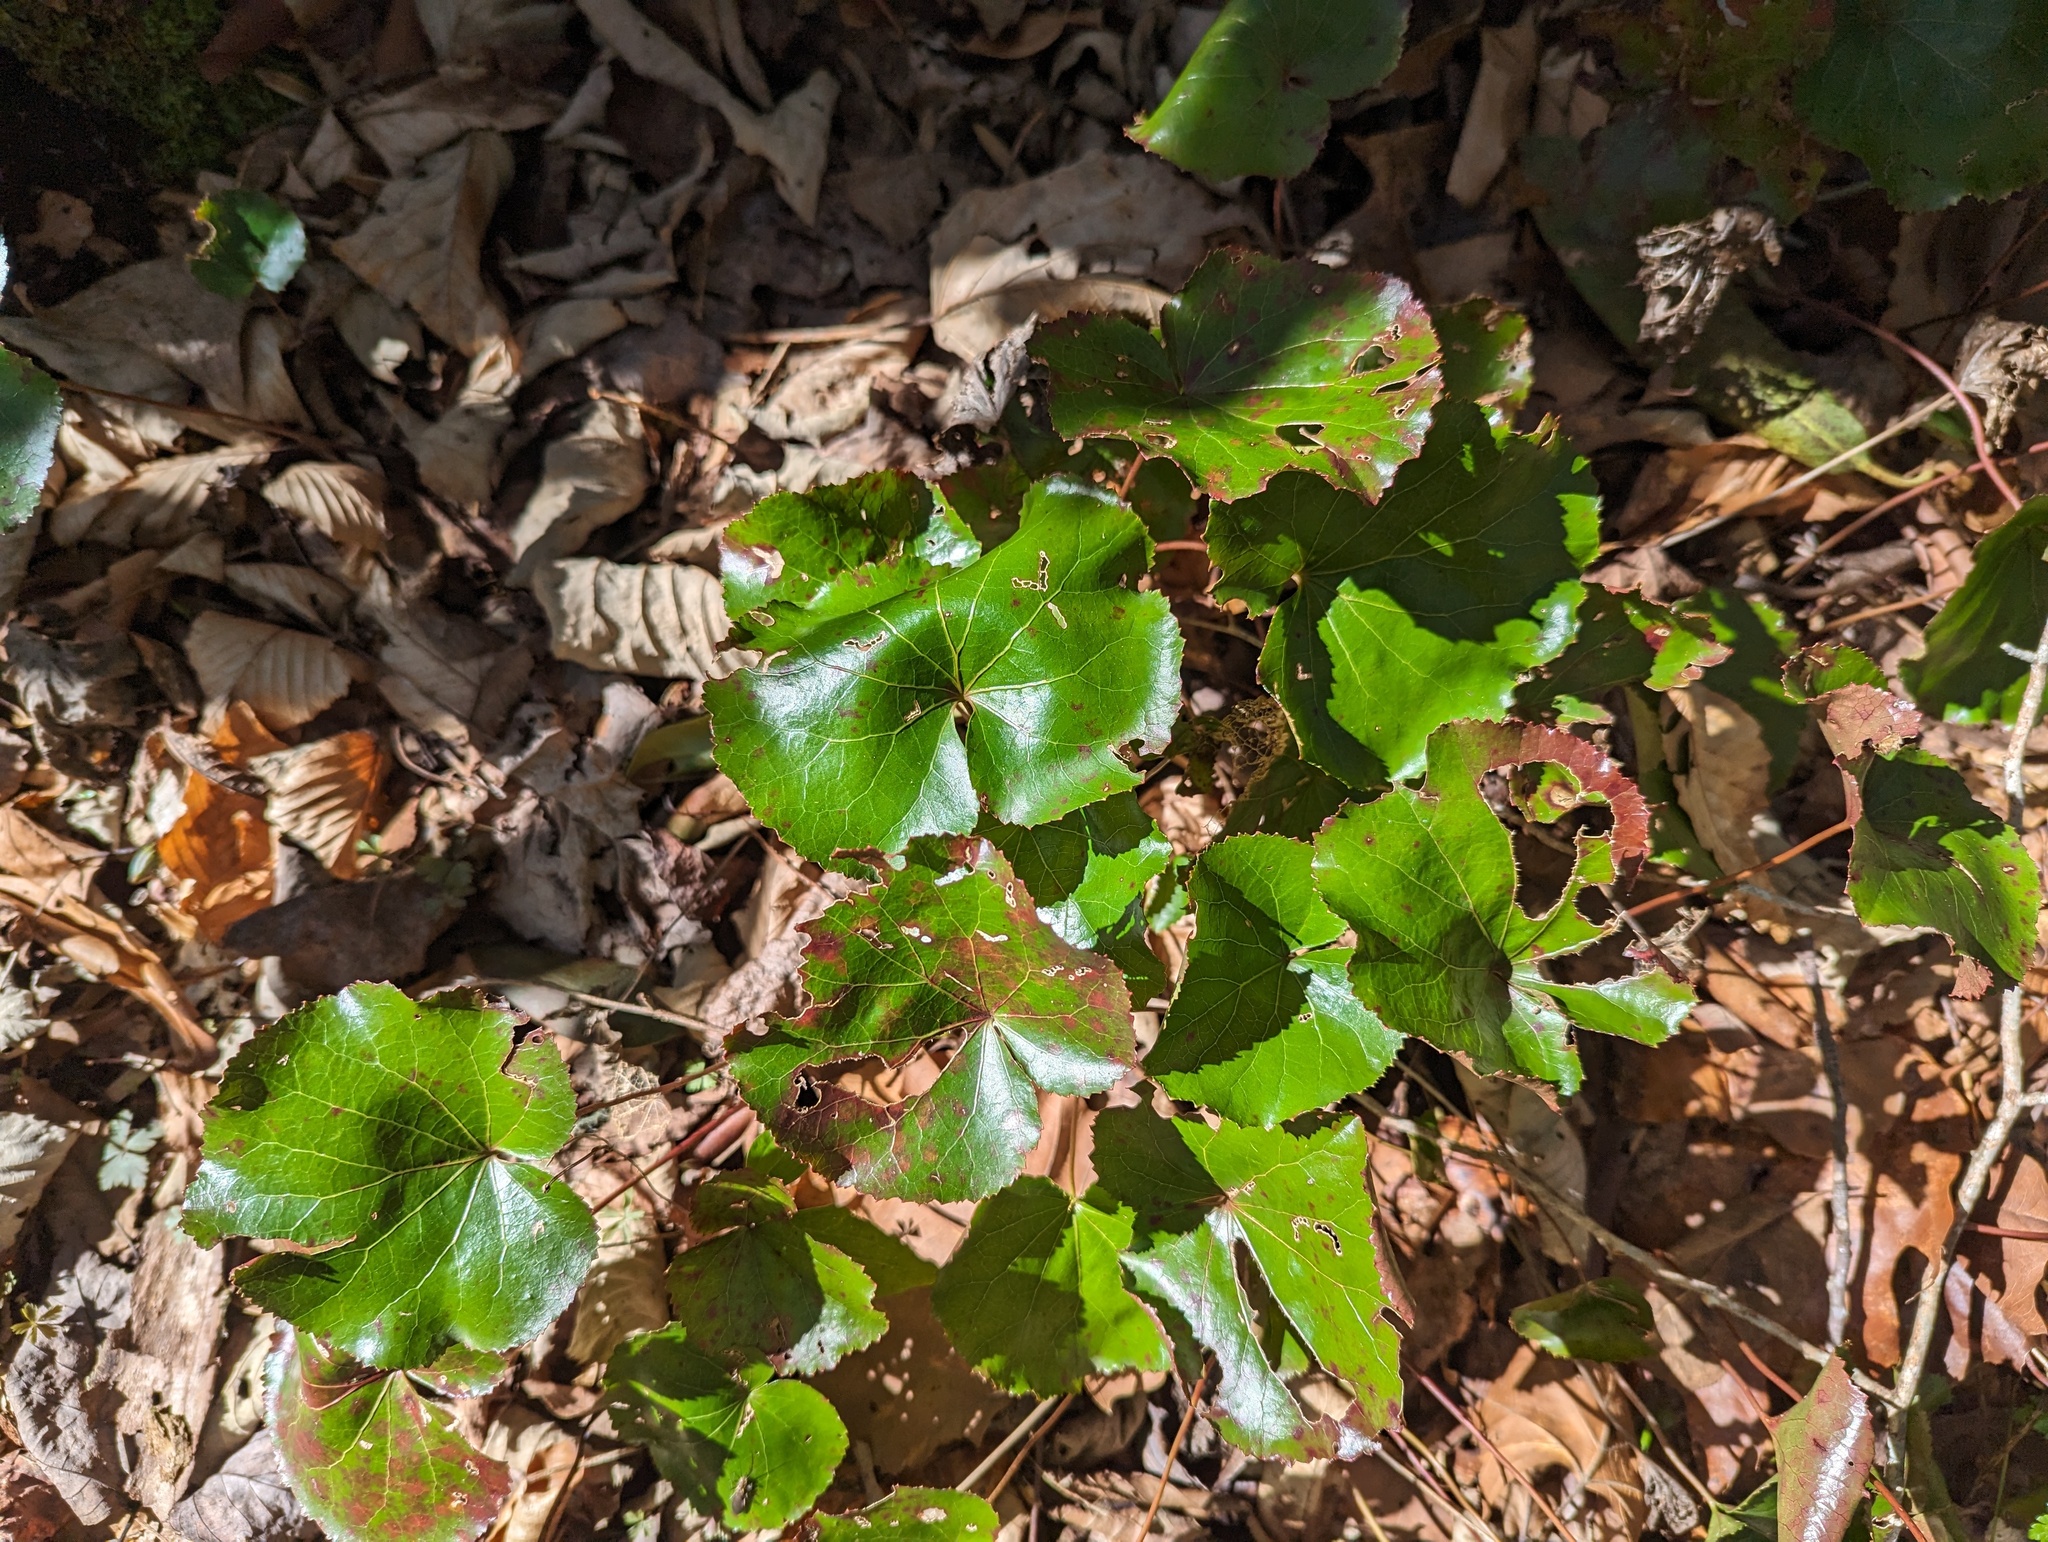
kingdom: Plantae
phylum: Tracheophyta
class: Magnoliopsida
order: Ericales
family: Diapensiaceae
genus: Galax
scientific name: Galax urceolata
